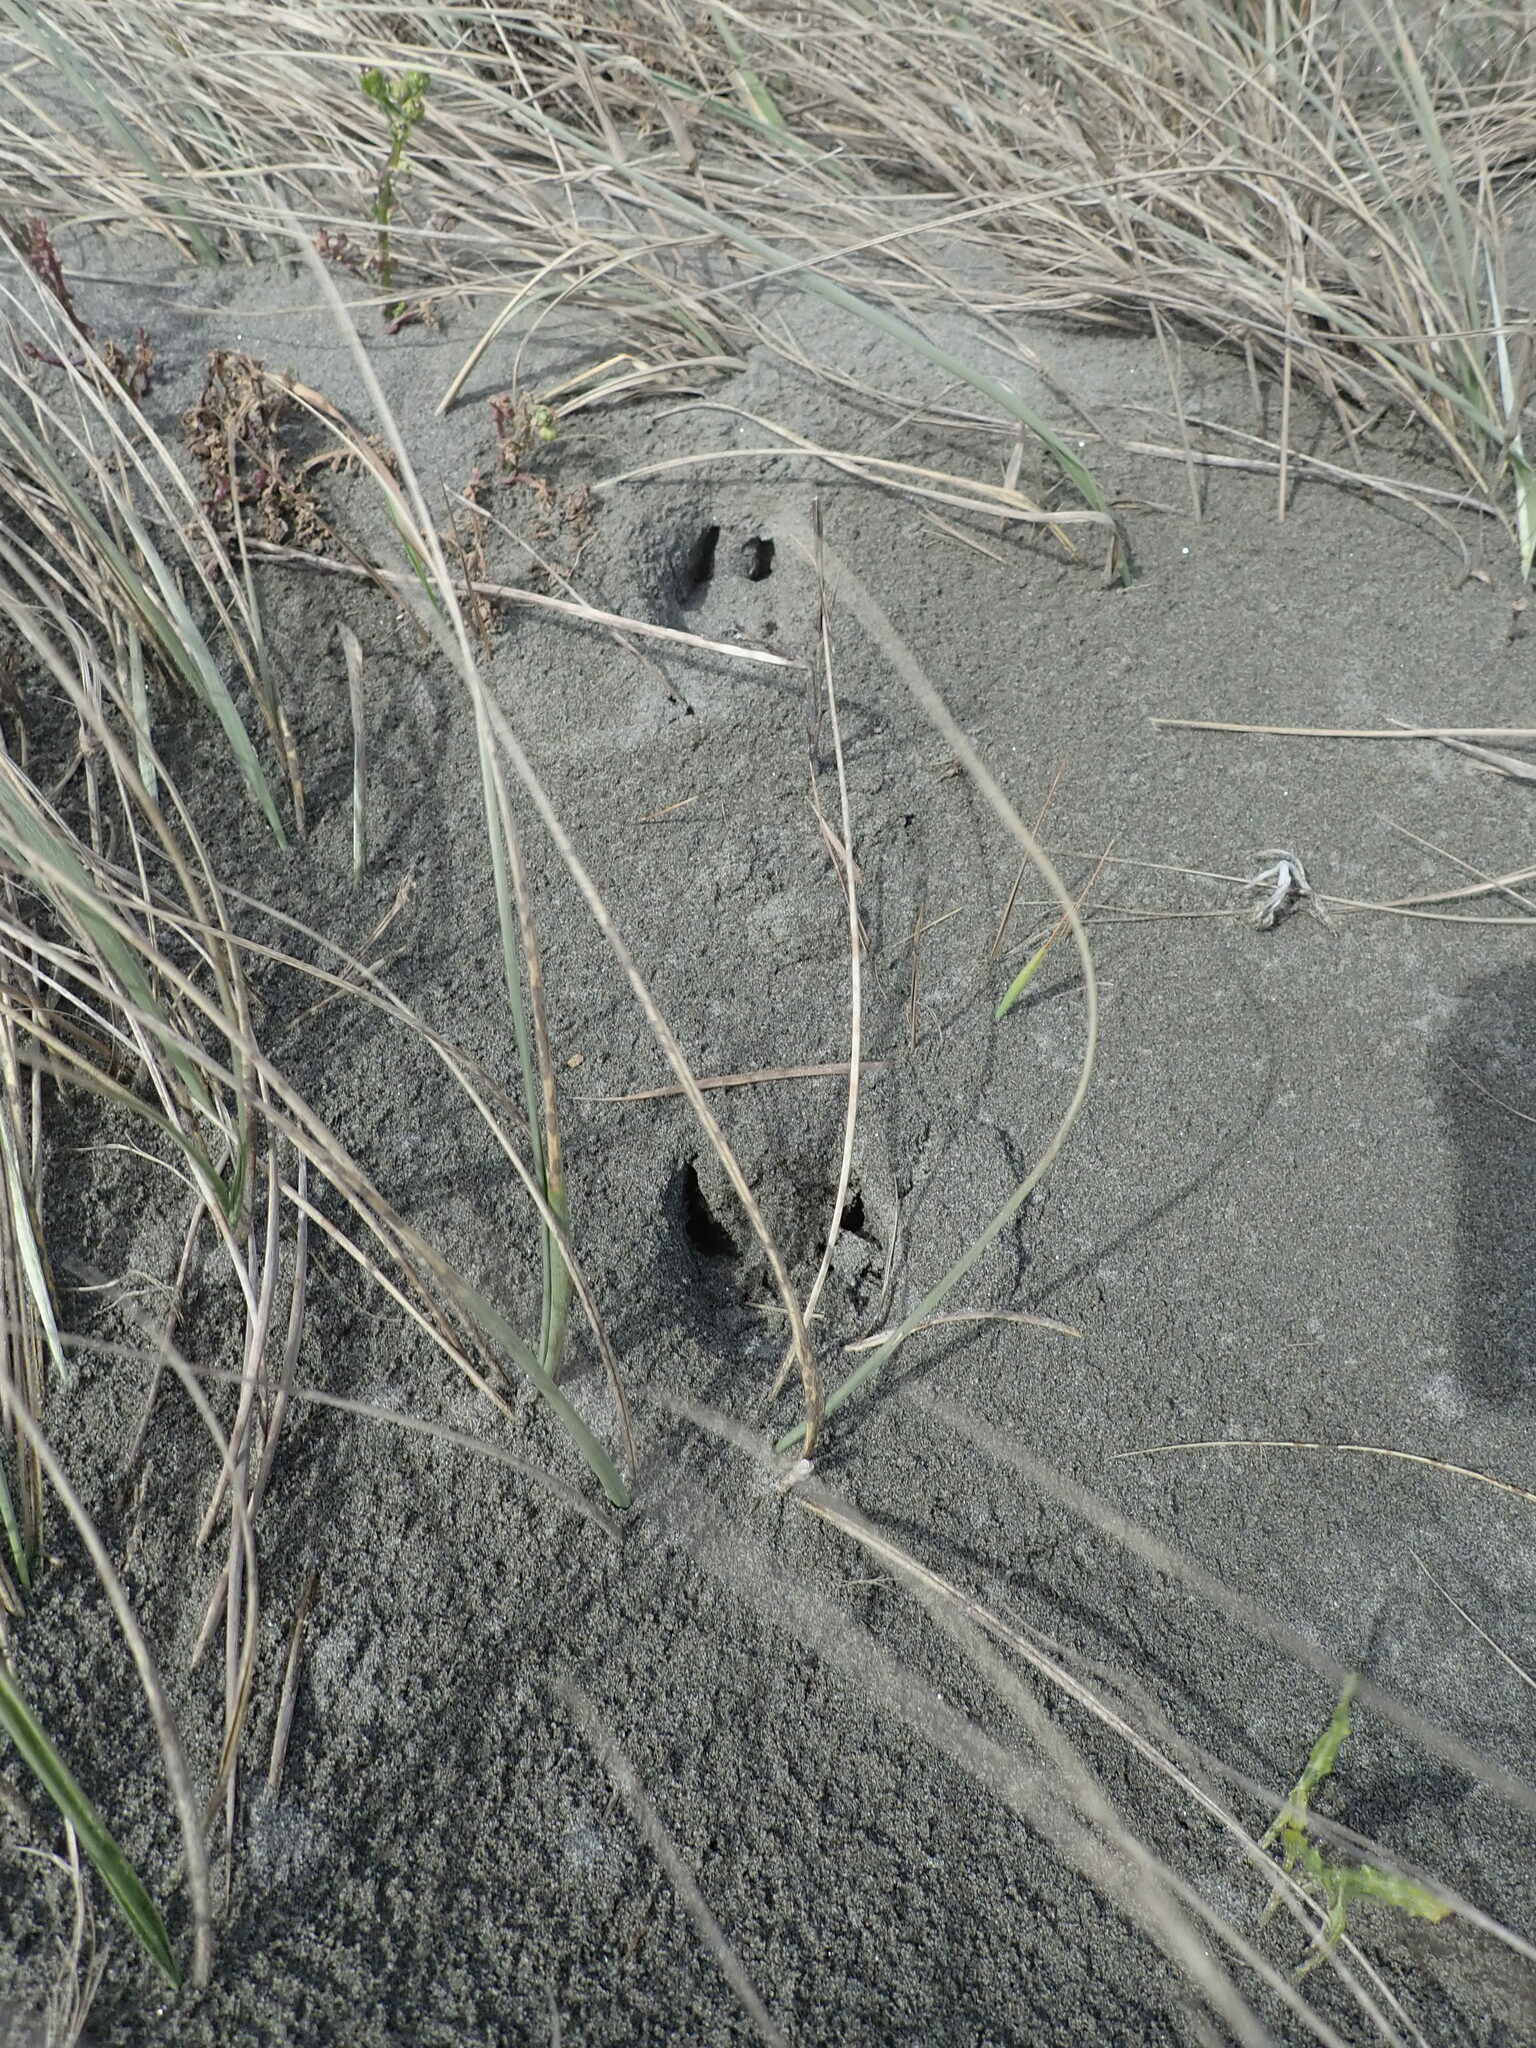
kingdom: Animalia
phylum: Chordata
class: Mammalia
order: Artiodactyla
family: Cervidae
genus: Rusa
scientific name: Rusa unicolor
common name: Sambar
